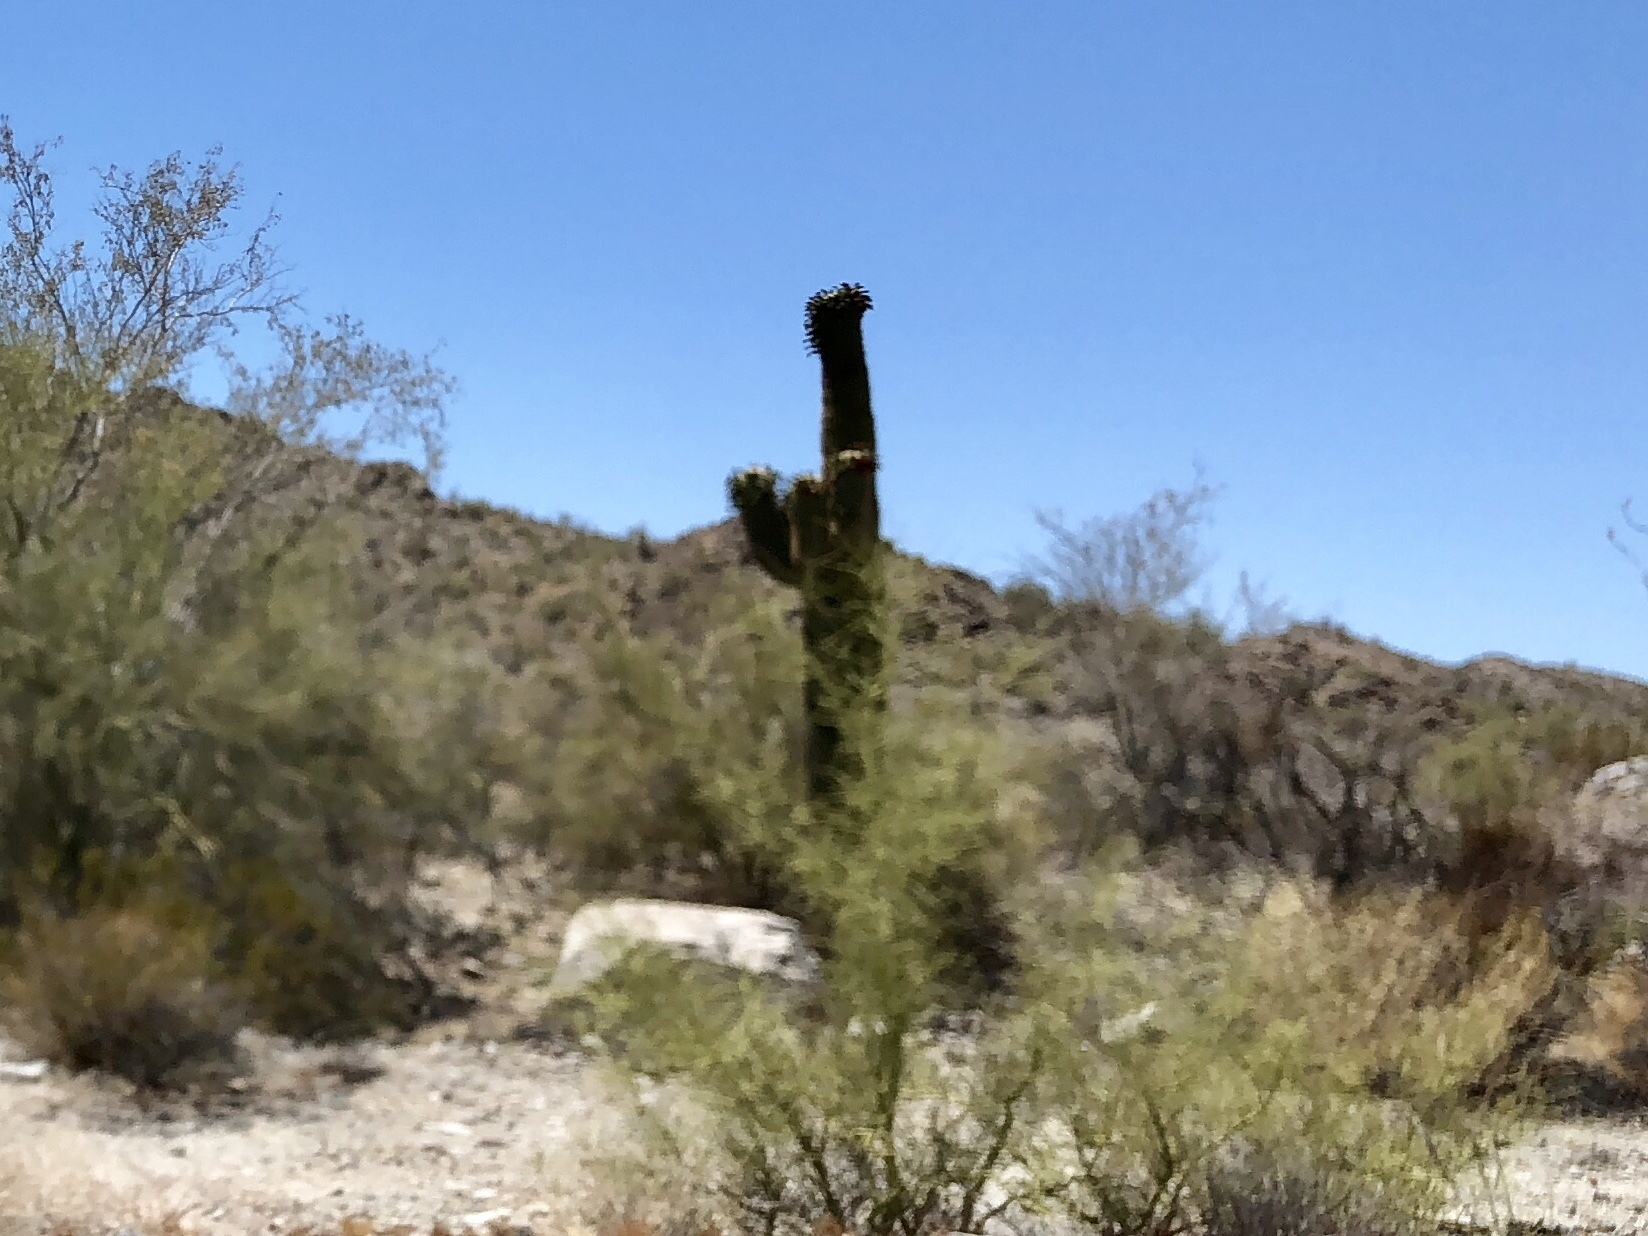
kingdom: Plantae
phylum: Tracheophyta
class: Magnoliopsida
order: Caryophyllales
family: Cactaceae
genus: Carnegiea
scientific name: Carnegiea gigantea
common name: Saguaro
